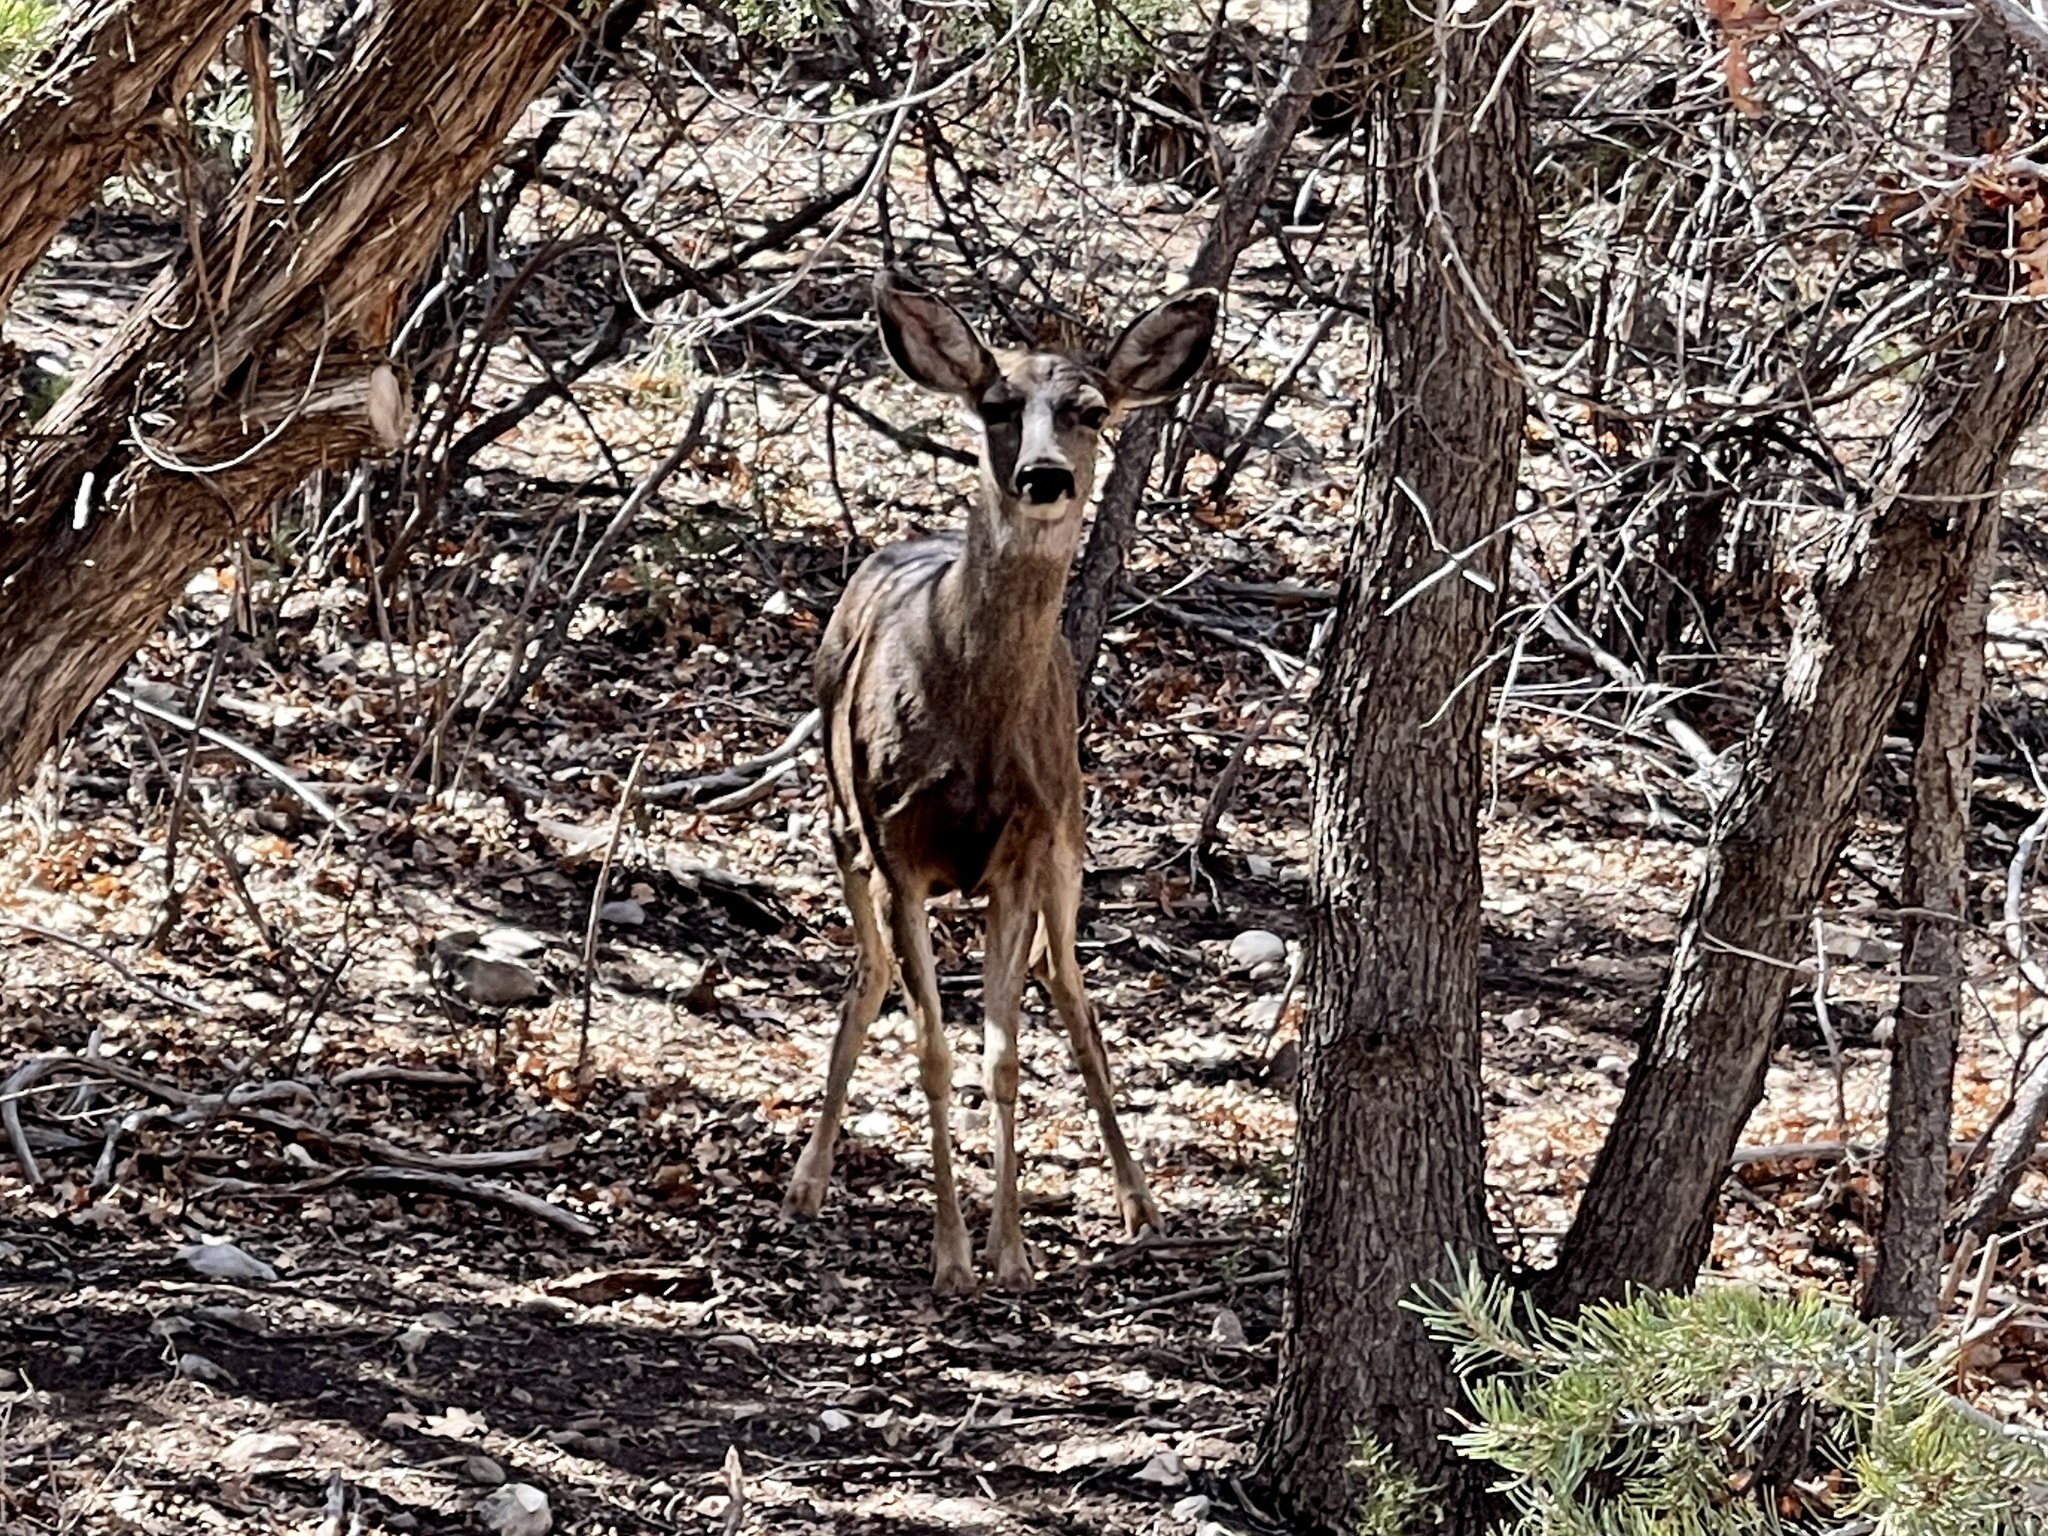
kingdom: Animalia
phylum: Chordata
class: Mammalia
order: Artiodactyla
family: Cervidae
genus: Odocoileus
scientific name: Odocoileus hemionus
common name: Mule deer
